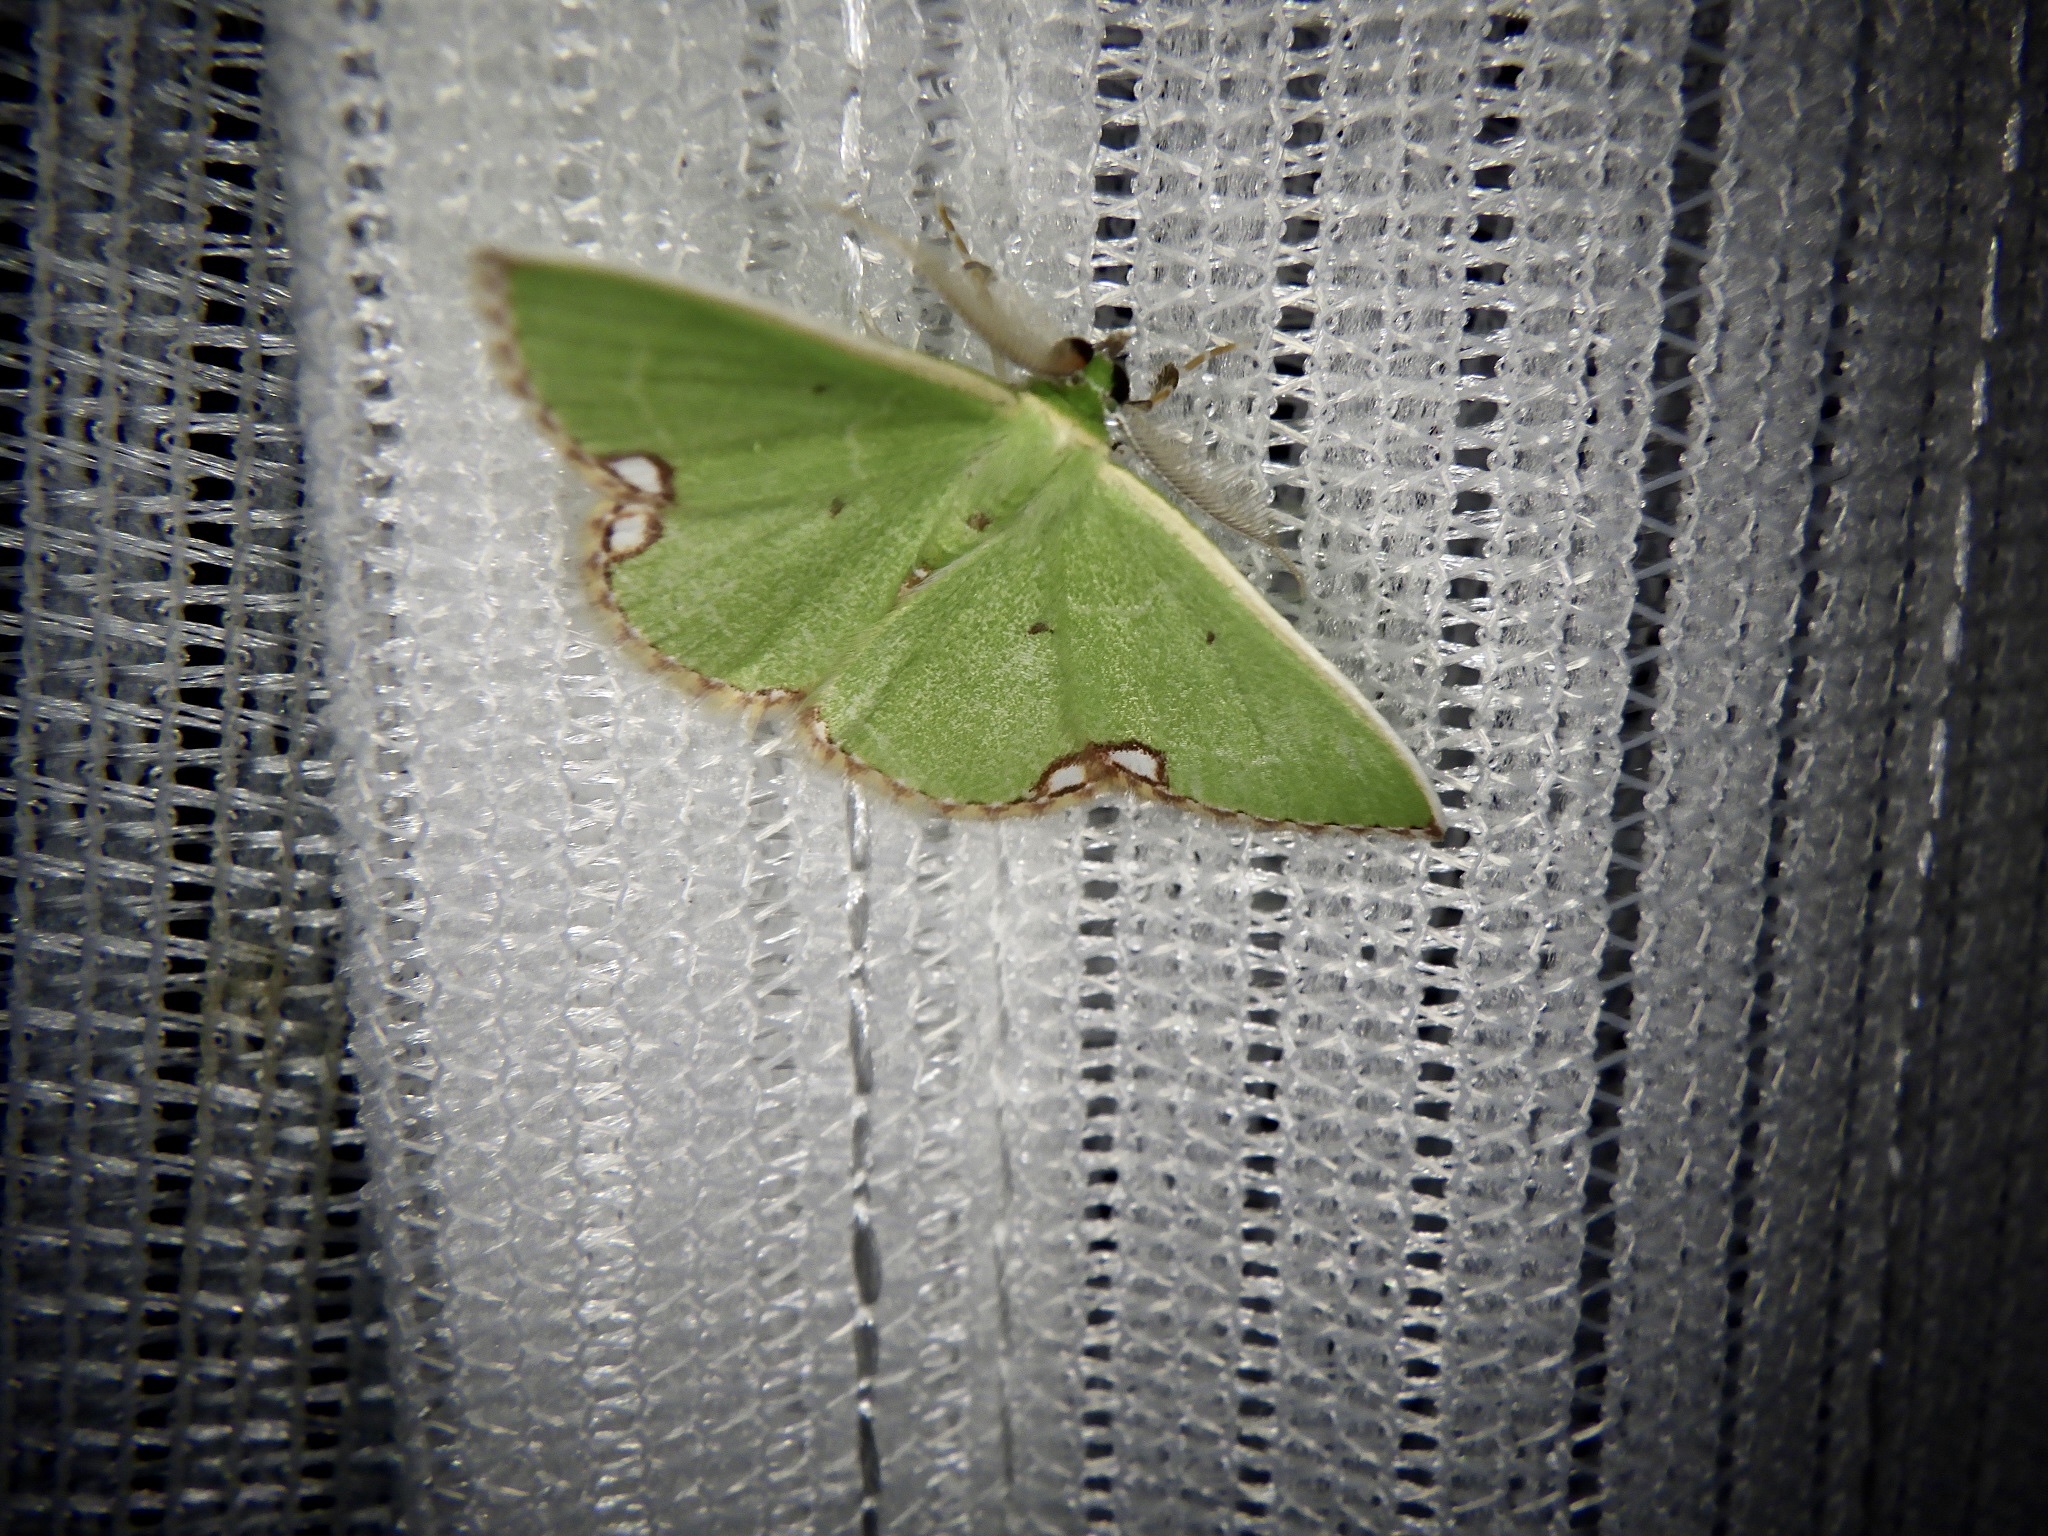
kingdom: Animalia
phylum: Arthropoda
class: Insecta
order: Lepidoptera
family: Geometridae
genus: Comibaena
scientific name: Comibaena procumbaria
